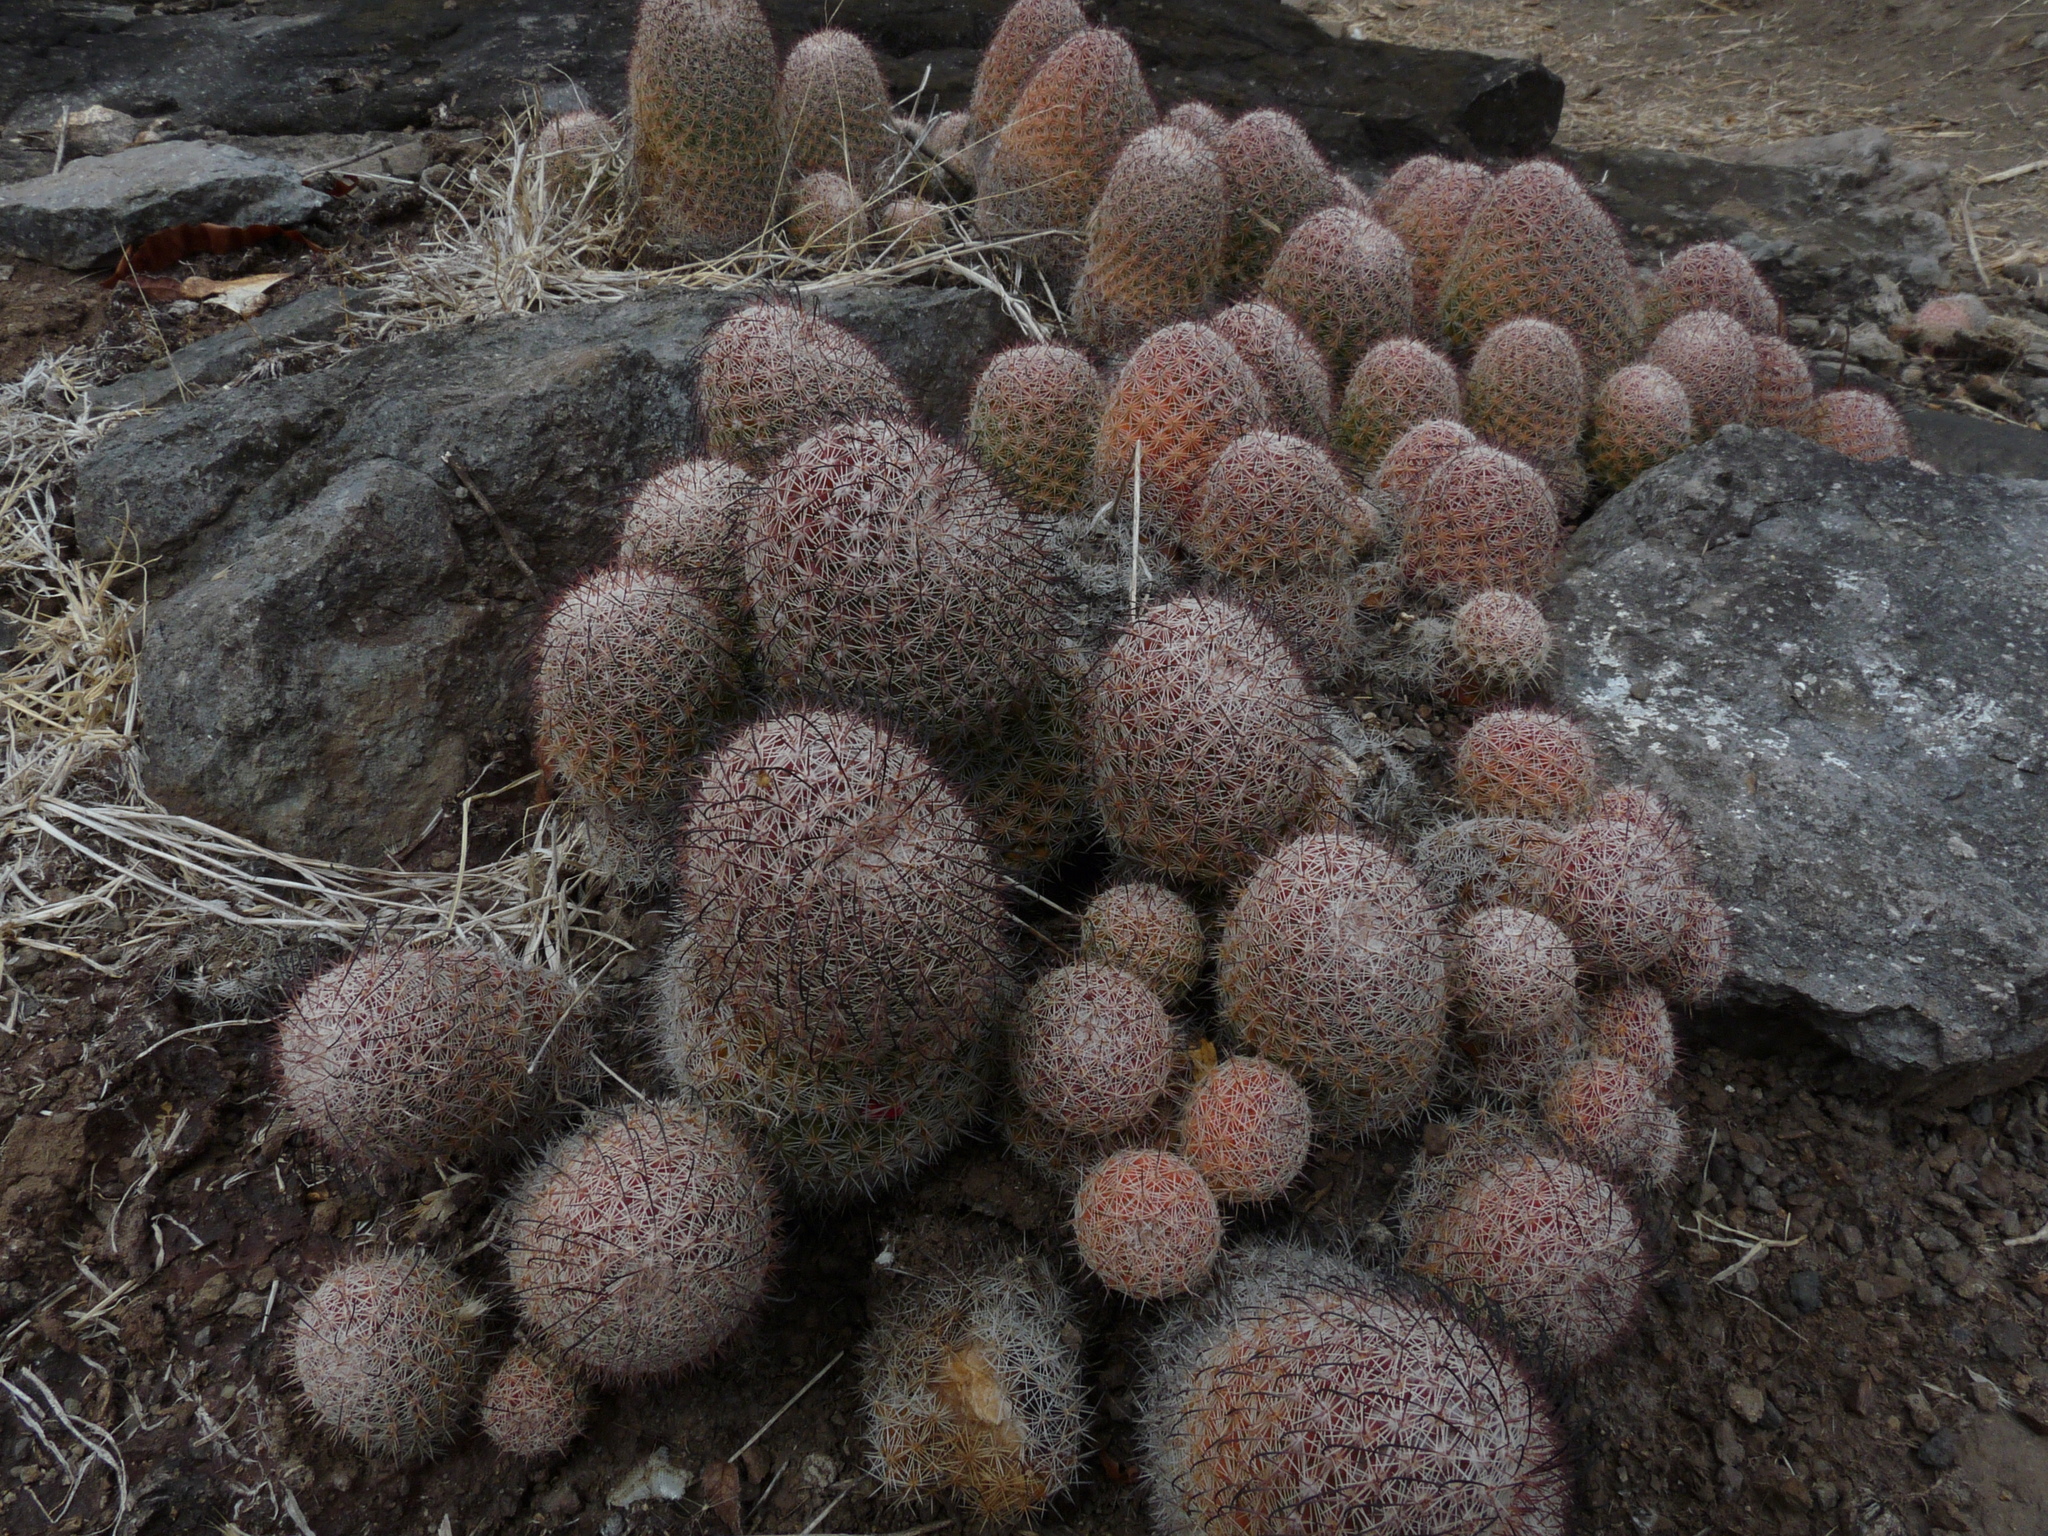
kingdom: Plantae
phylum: Tracheophyta
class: Magnoliopsida
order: Caryophyllales
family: Cactaceae
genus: Mammillaria
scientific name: Mammillaria beneckei
